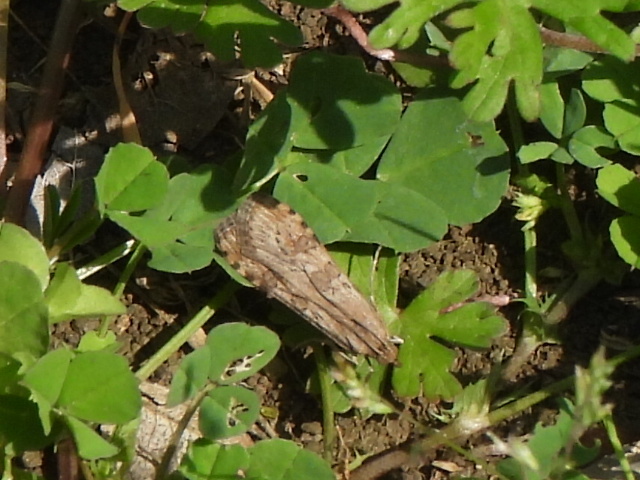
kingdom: Animalia
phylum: Arthropoda
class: Insecta
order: Lepidoptera
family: Crambidae
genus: Nomophila
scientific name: Nomophila nearctica
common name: American rush veneer
